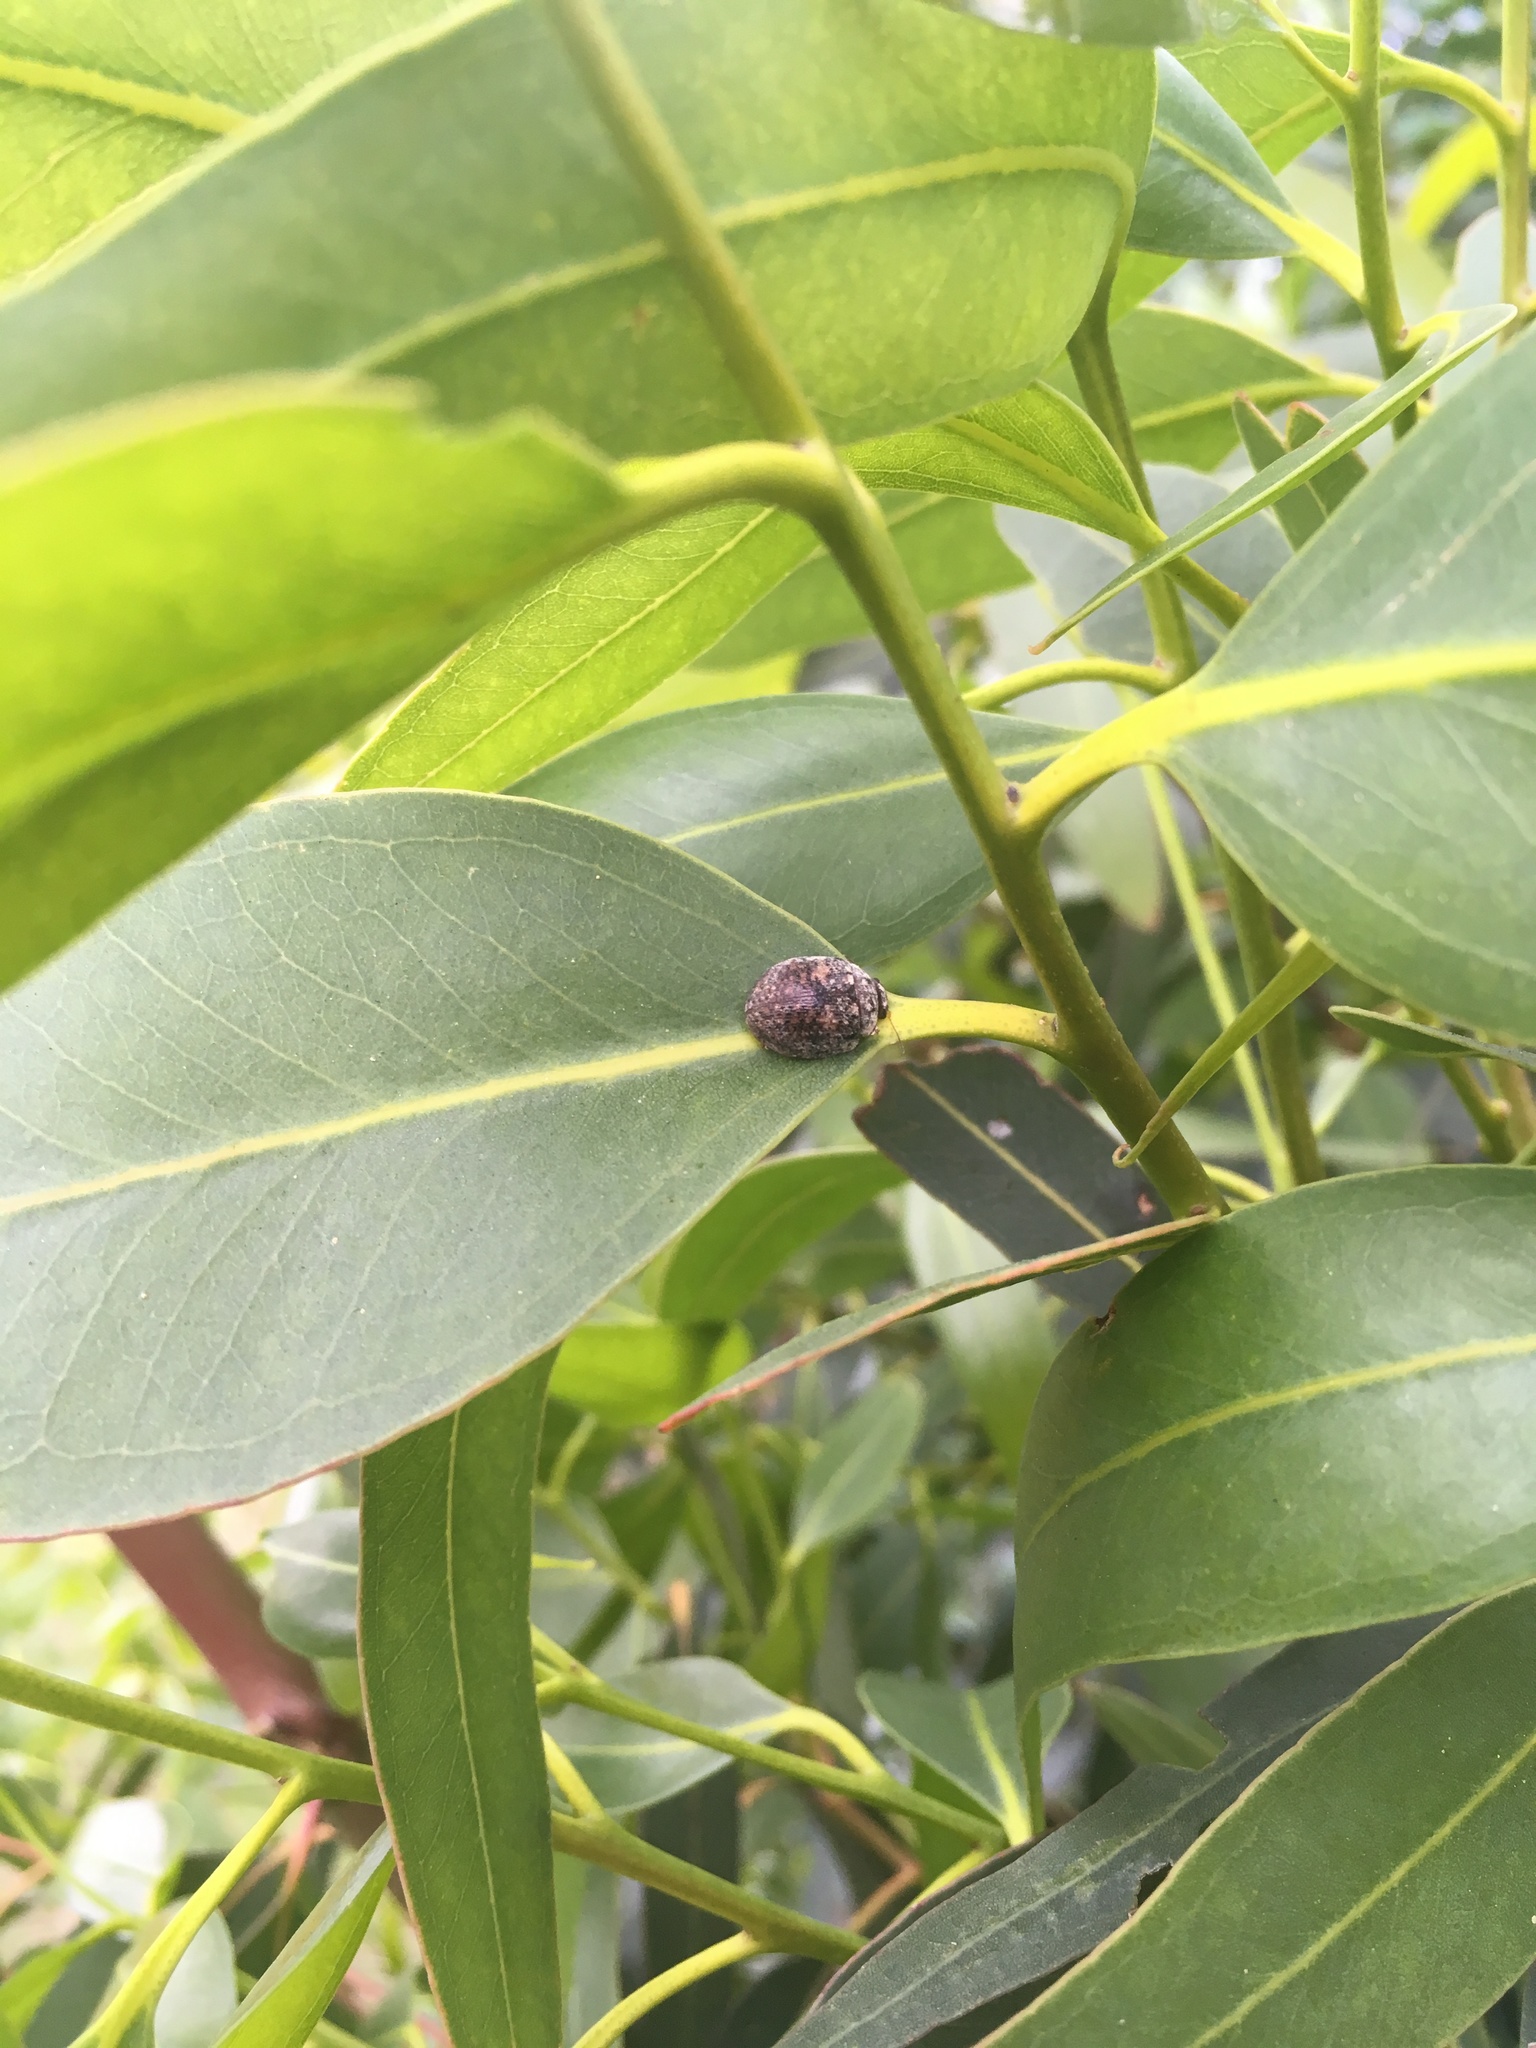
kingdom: Animalia
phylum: Arthropoda
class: Insecta
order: Coleoptera
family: Chrysomelidae
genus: Trachymela
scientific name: Trachymela sloanei
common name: Australian tortoise beetle
